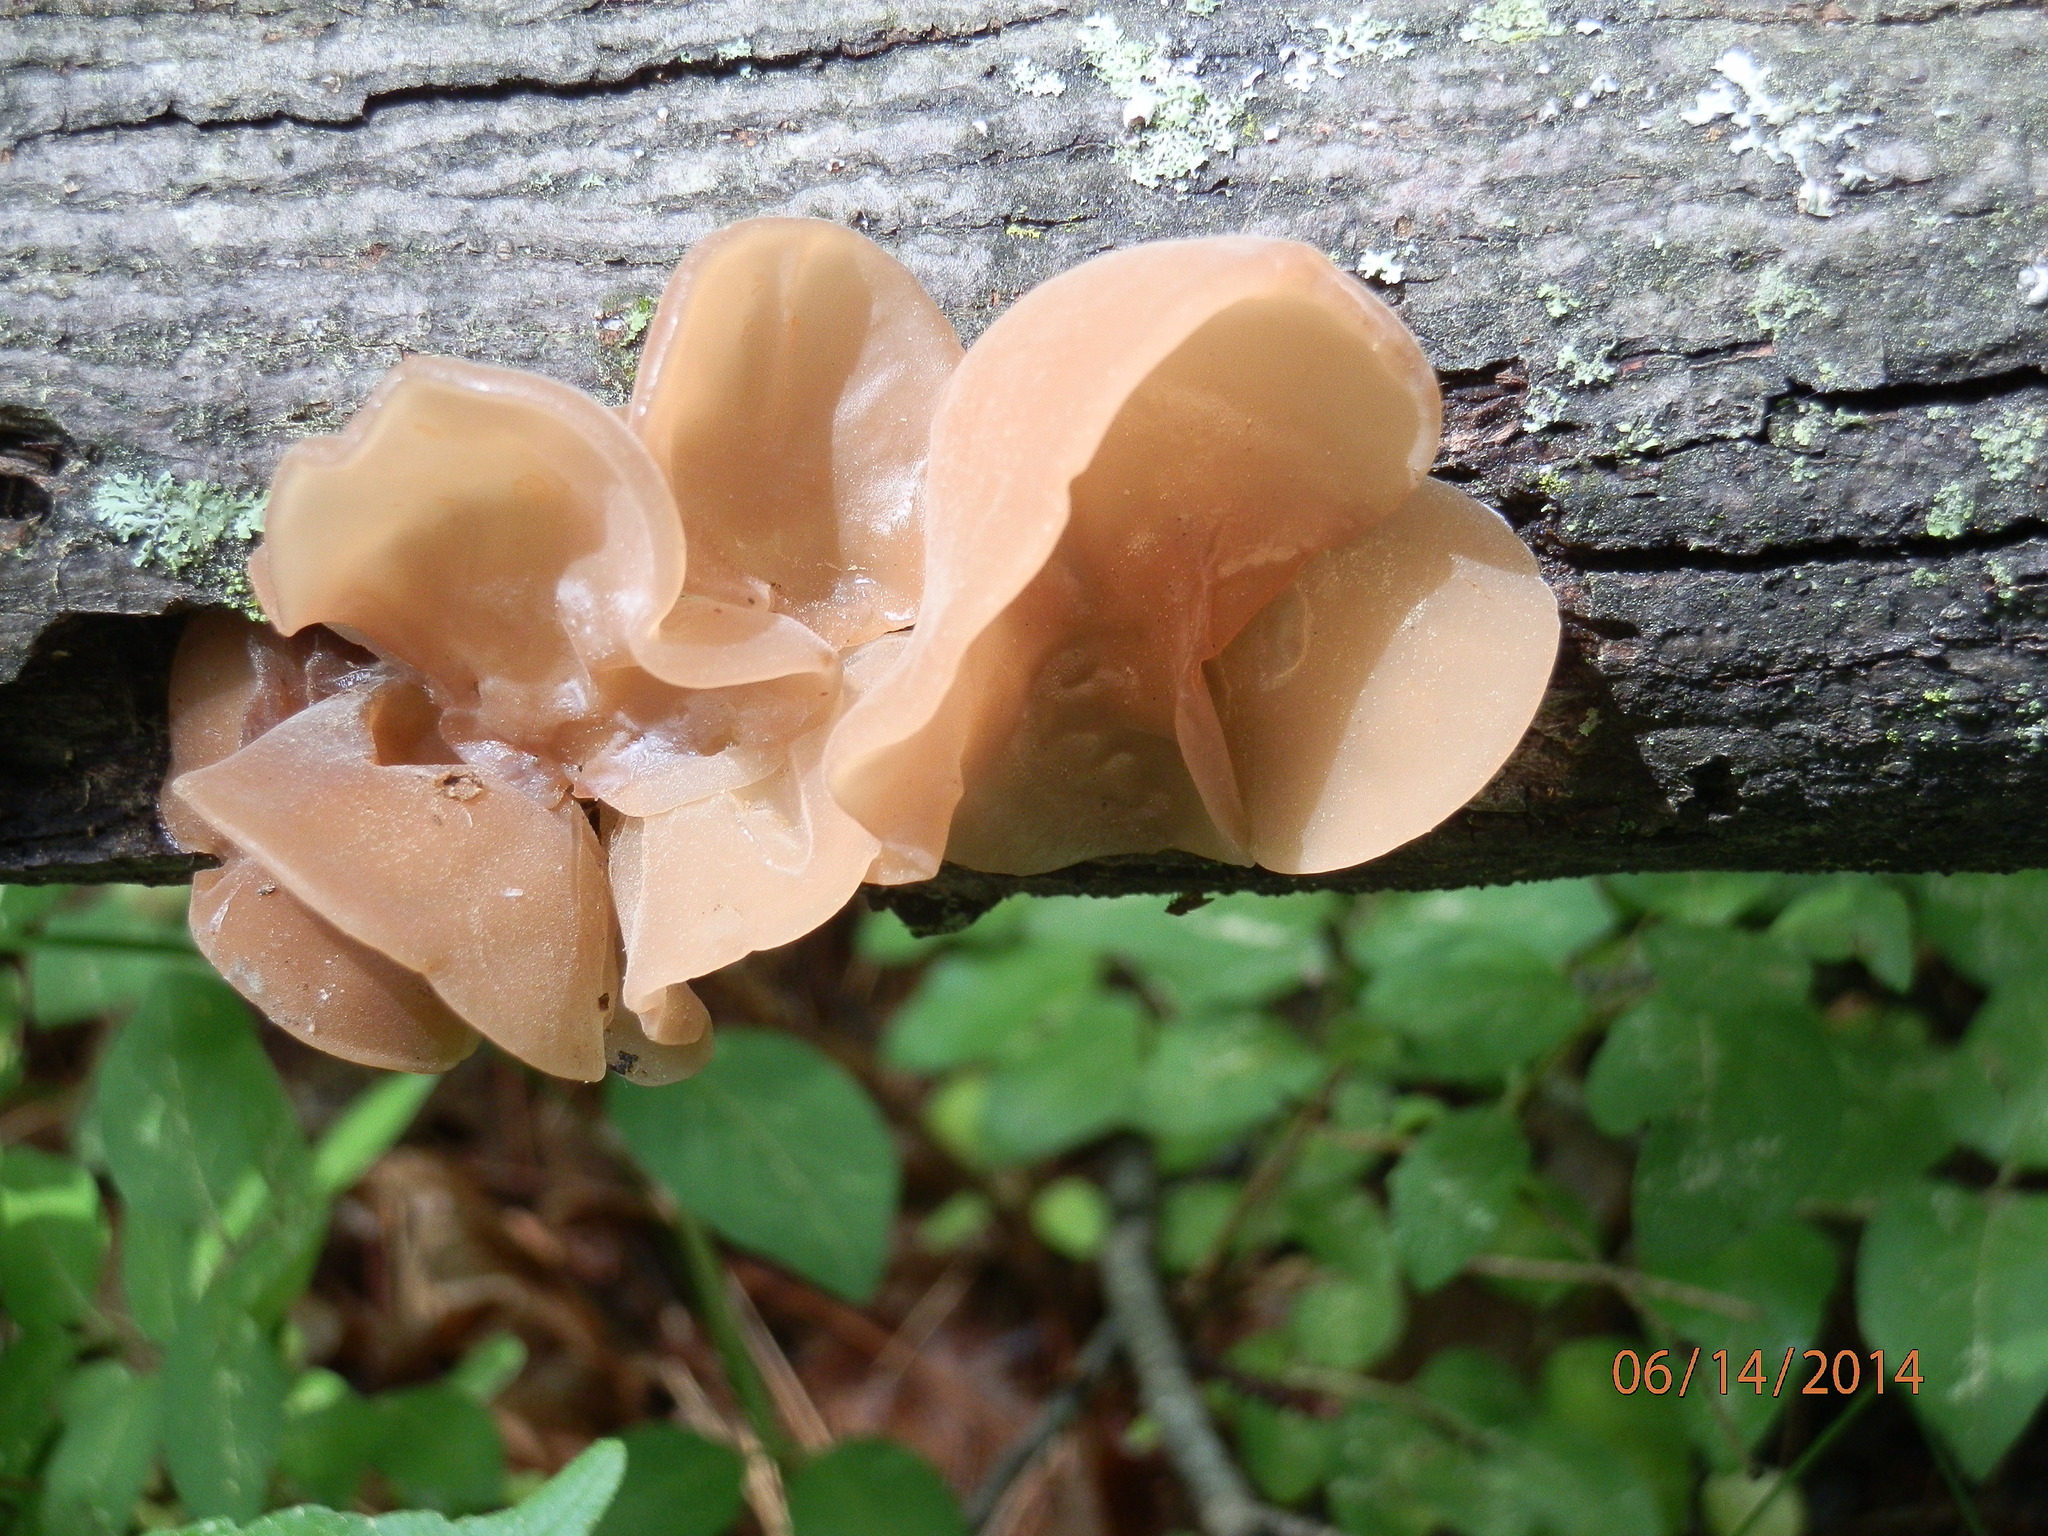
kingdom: Fungi
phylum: Basidiomycota
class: Agaricomycetes
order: Auriculariales
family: Auriculariaceae
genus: Auricularia
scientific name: Auricularia angiospermarum
